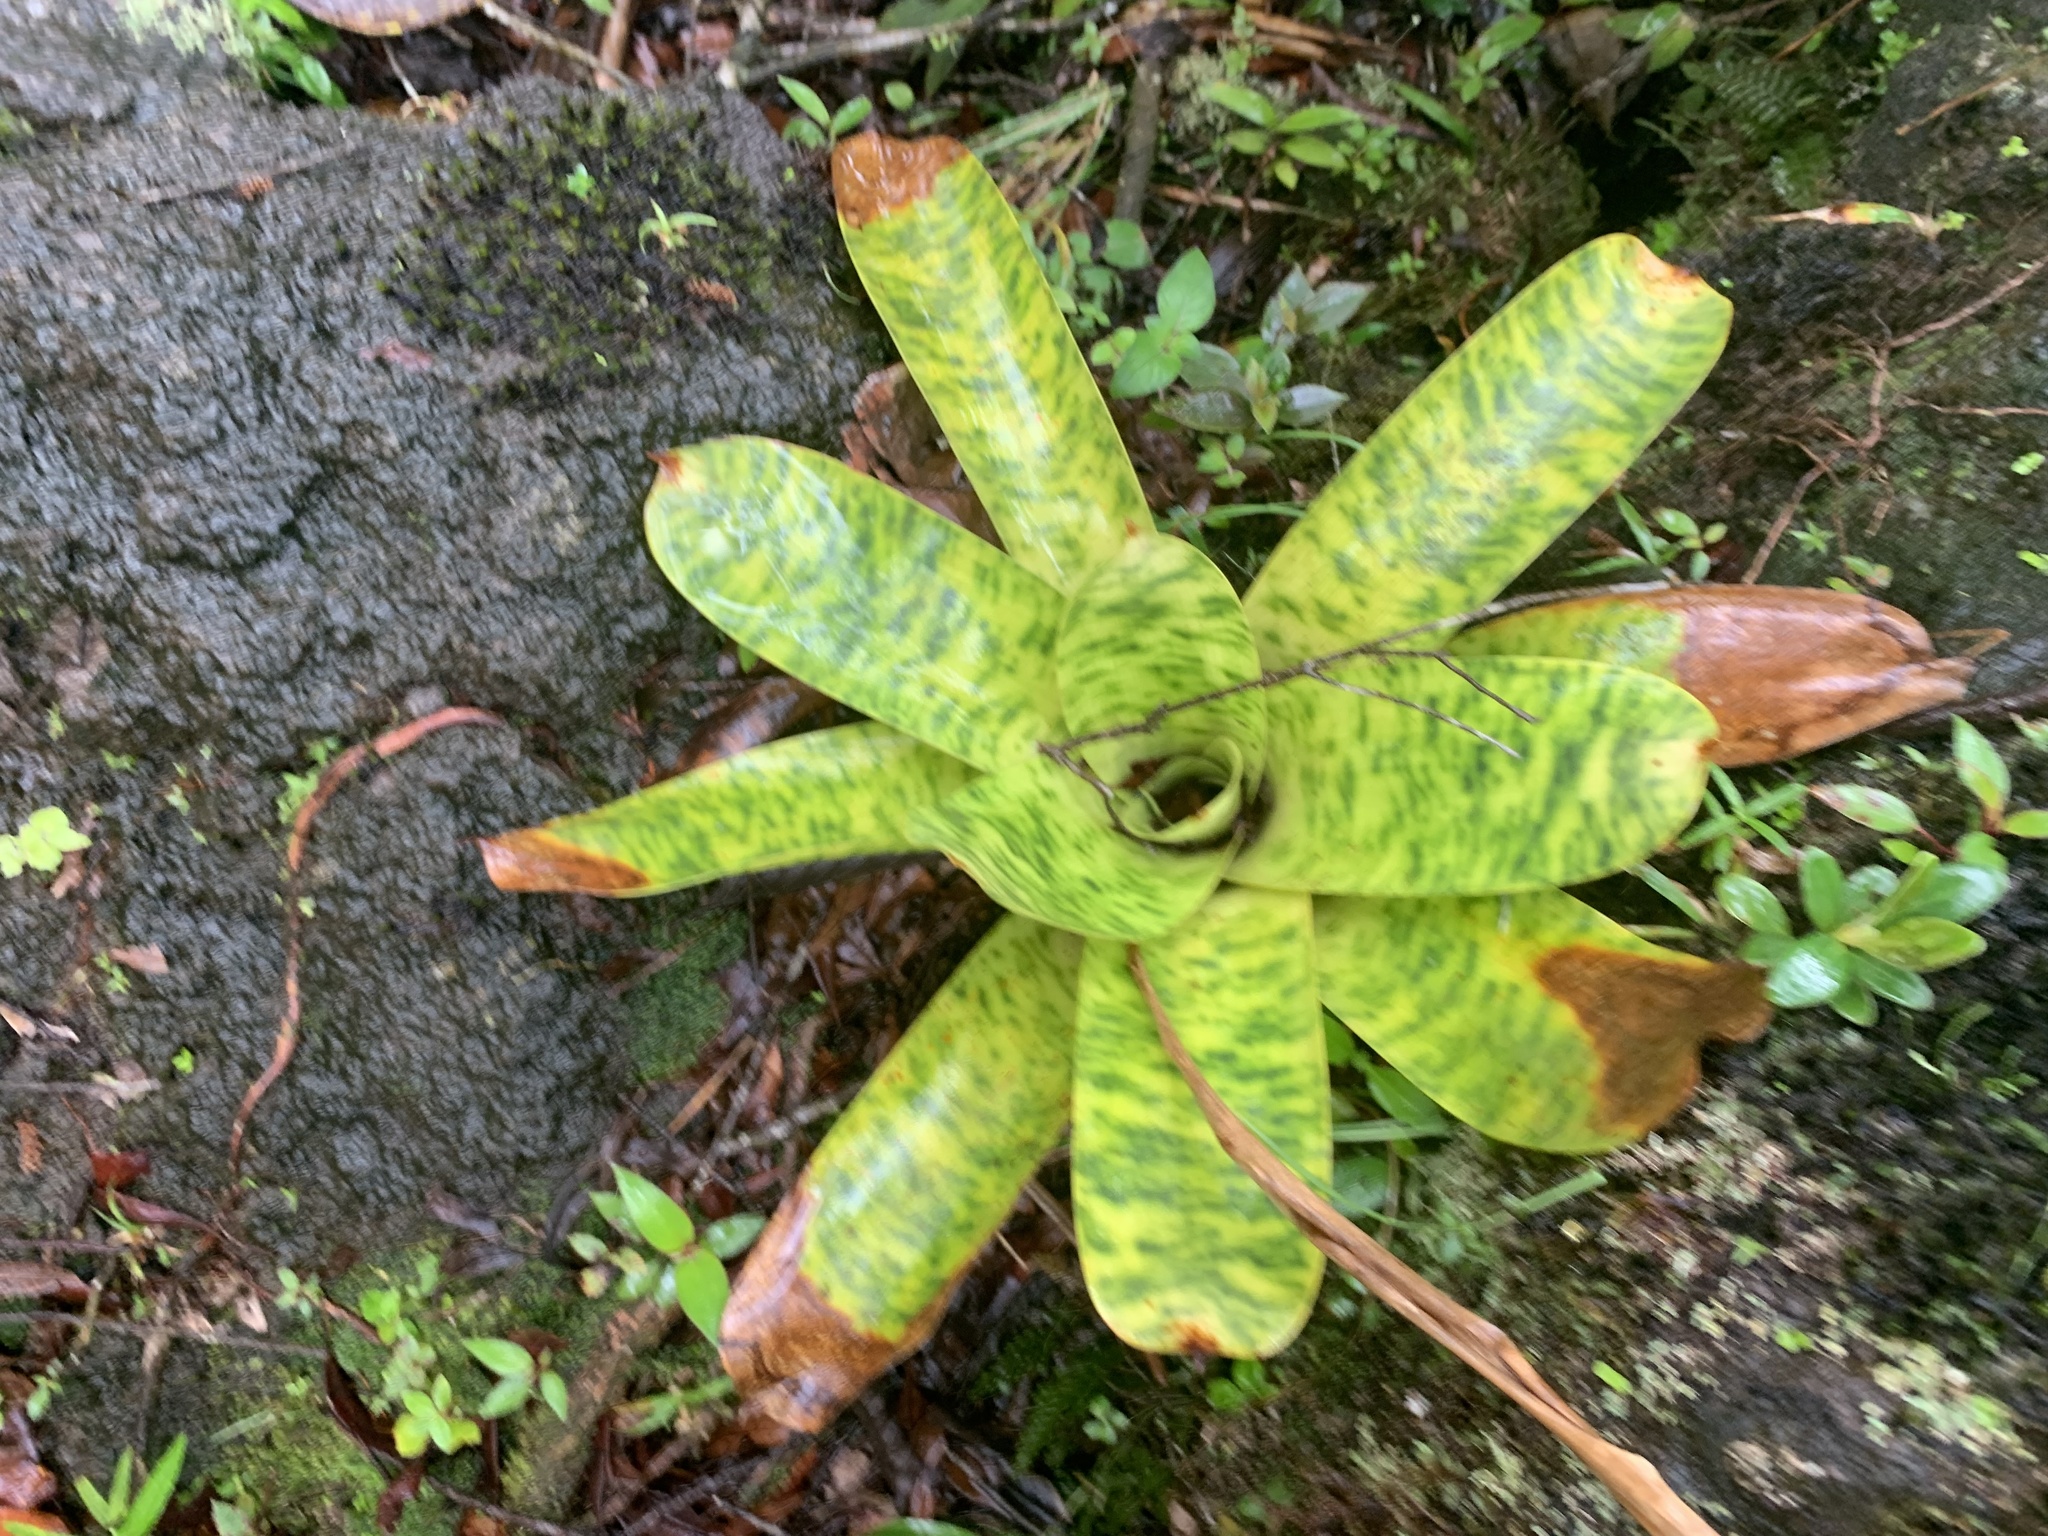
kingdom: Plantae
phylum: Tracheophyta
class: Liliopsida
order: Poales
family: Bromeliaceae
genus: Werauhia
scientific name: Werauhia kupperiana
